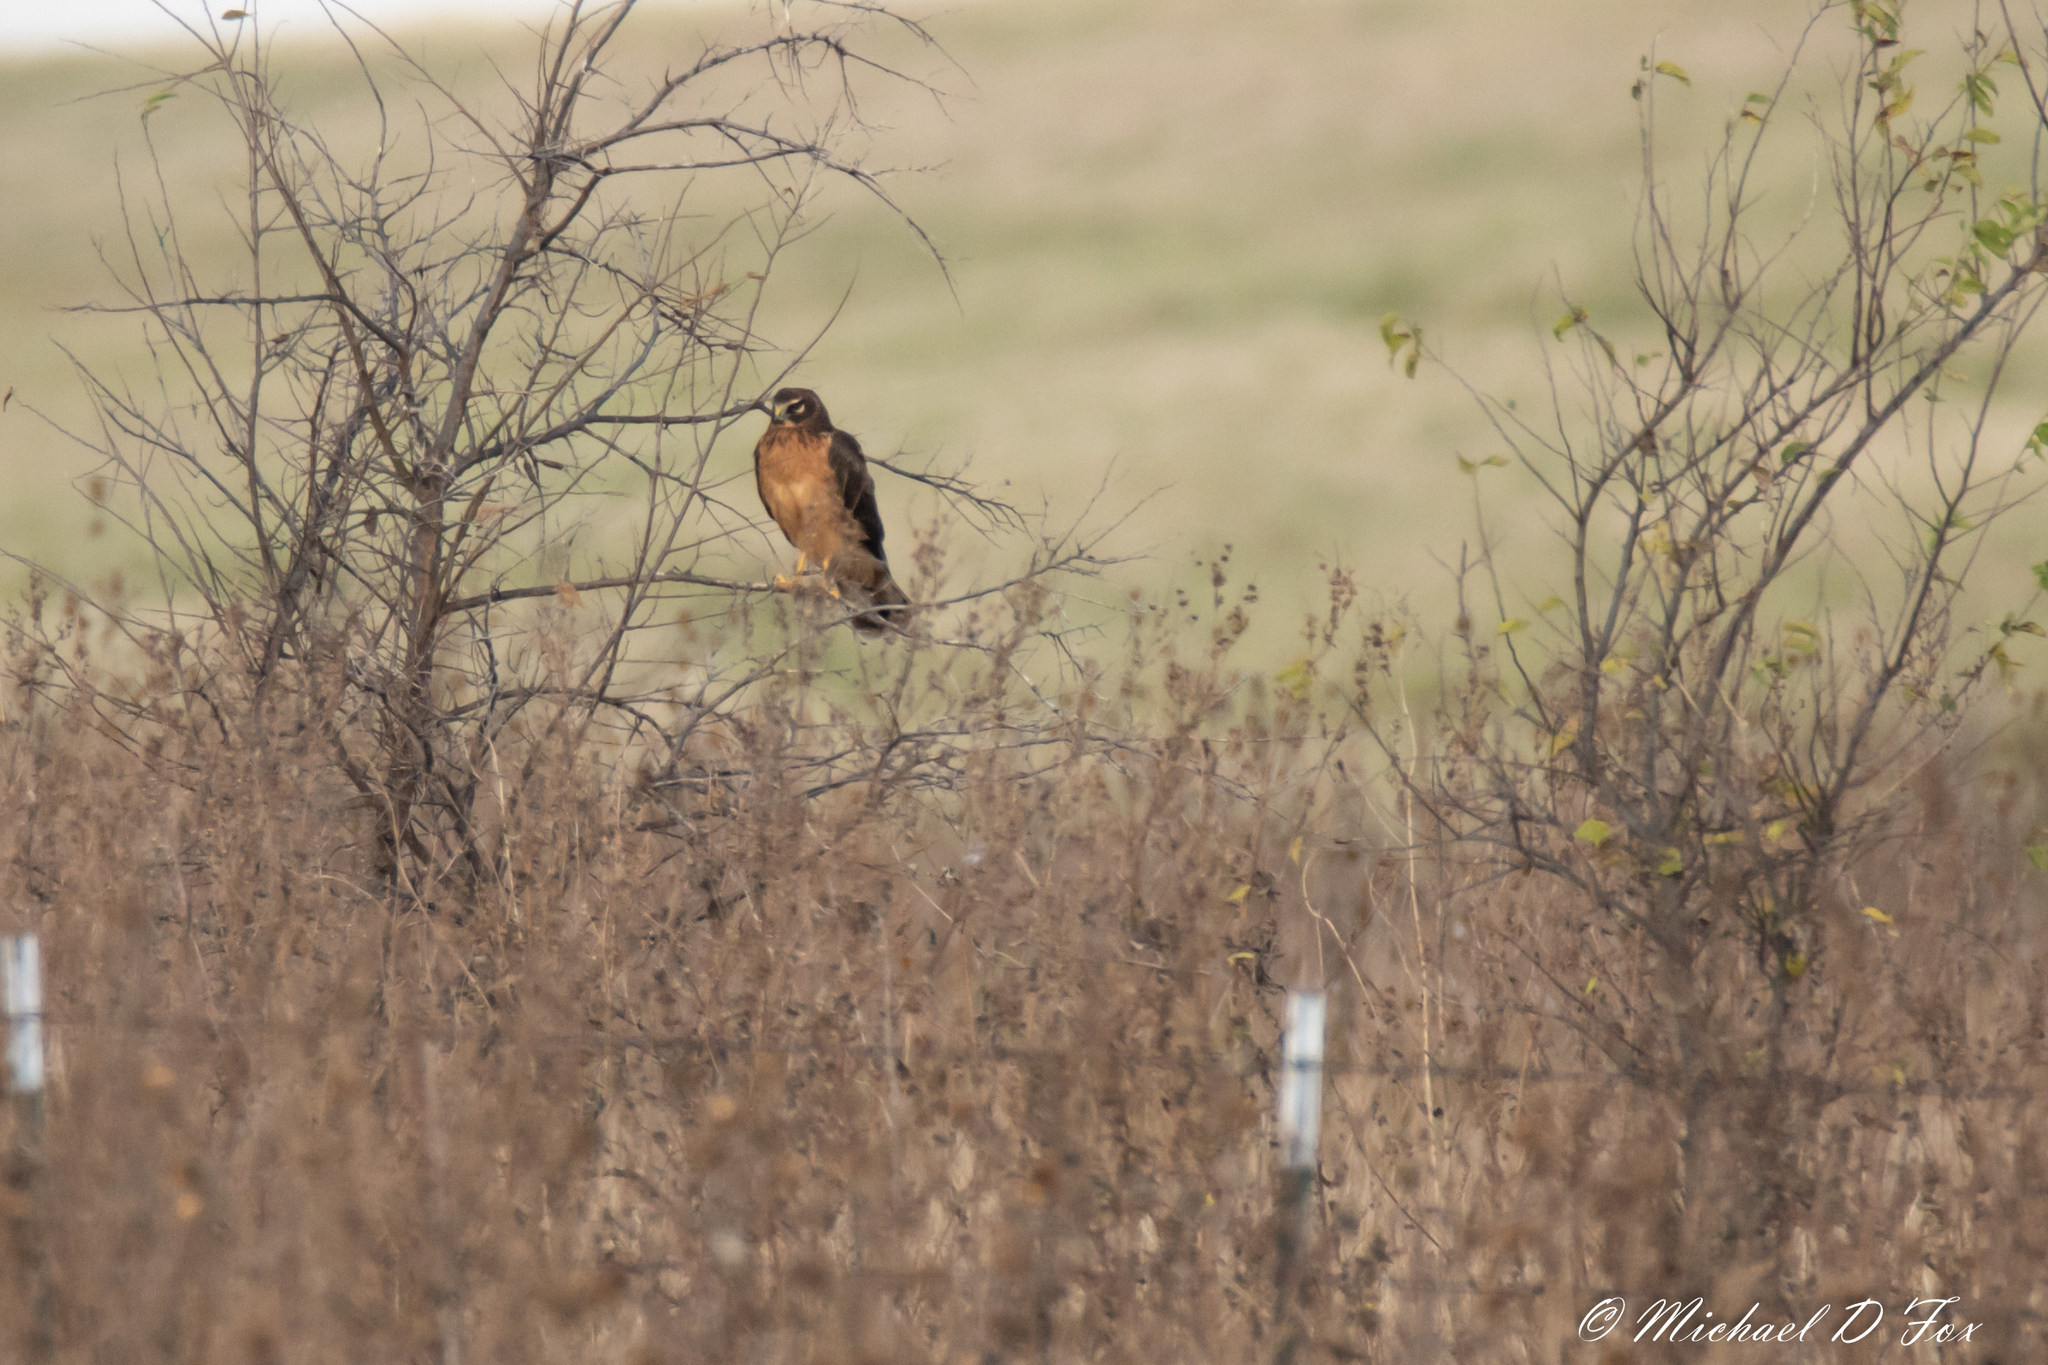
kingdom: Animalia
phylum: Chordata
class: Aves
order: Accipitriformes
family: Accipitridae
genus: Circus
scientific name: Circus cyaneus
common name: Hen harrier
